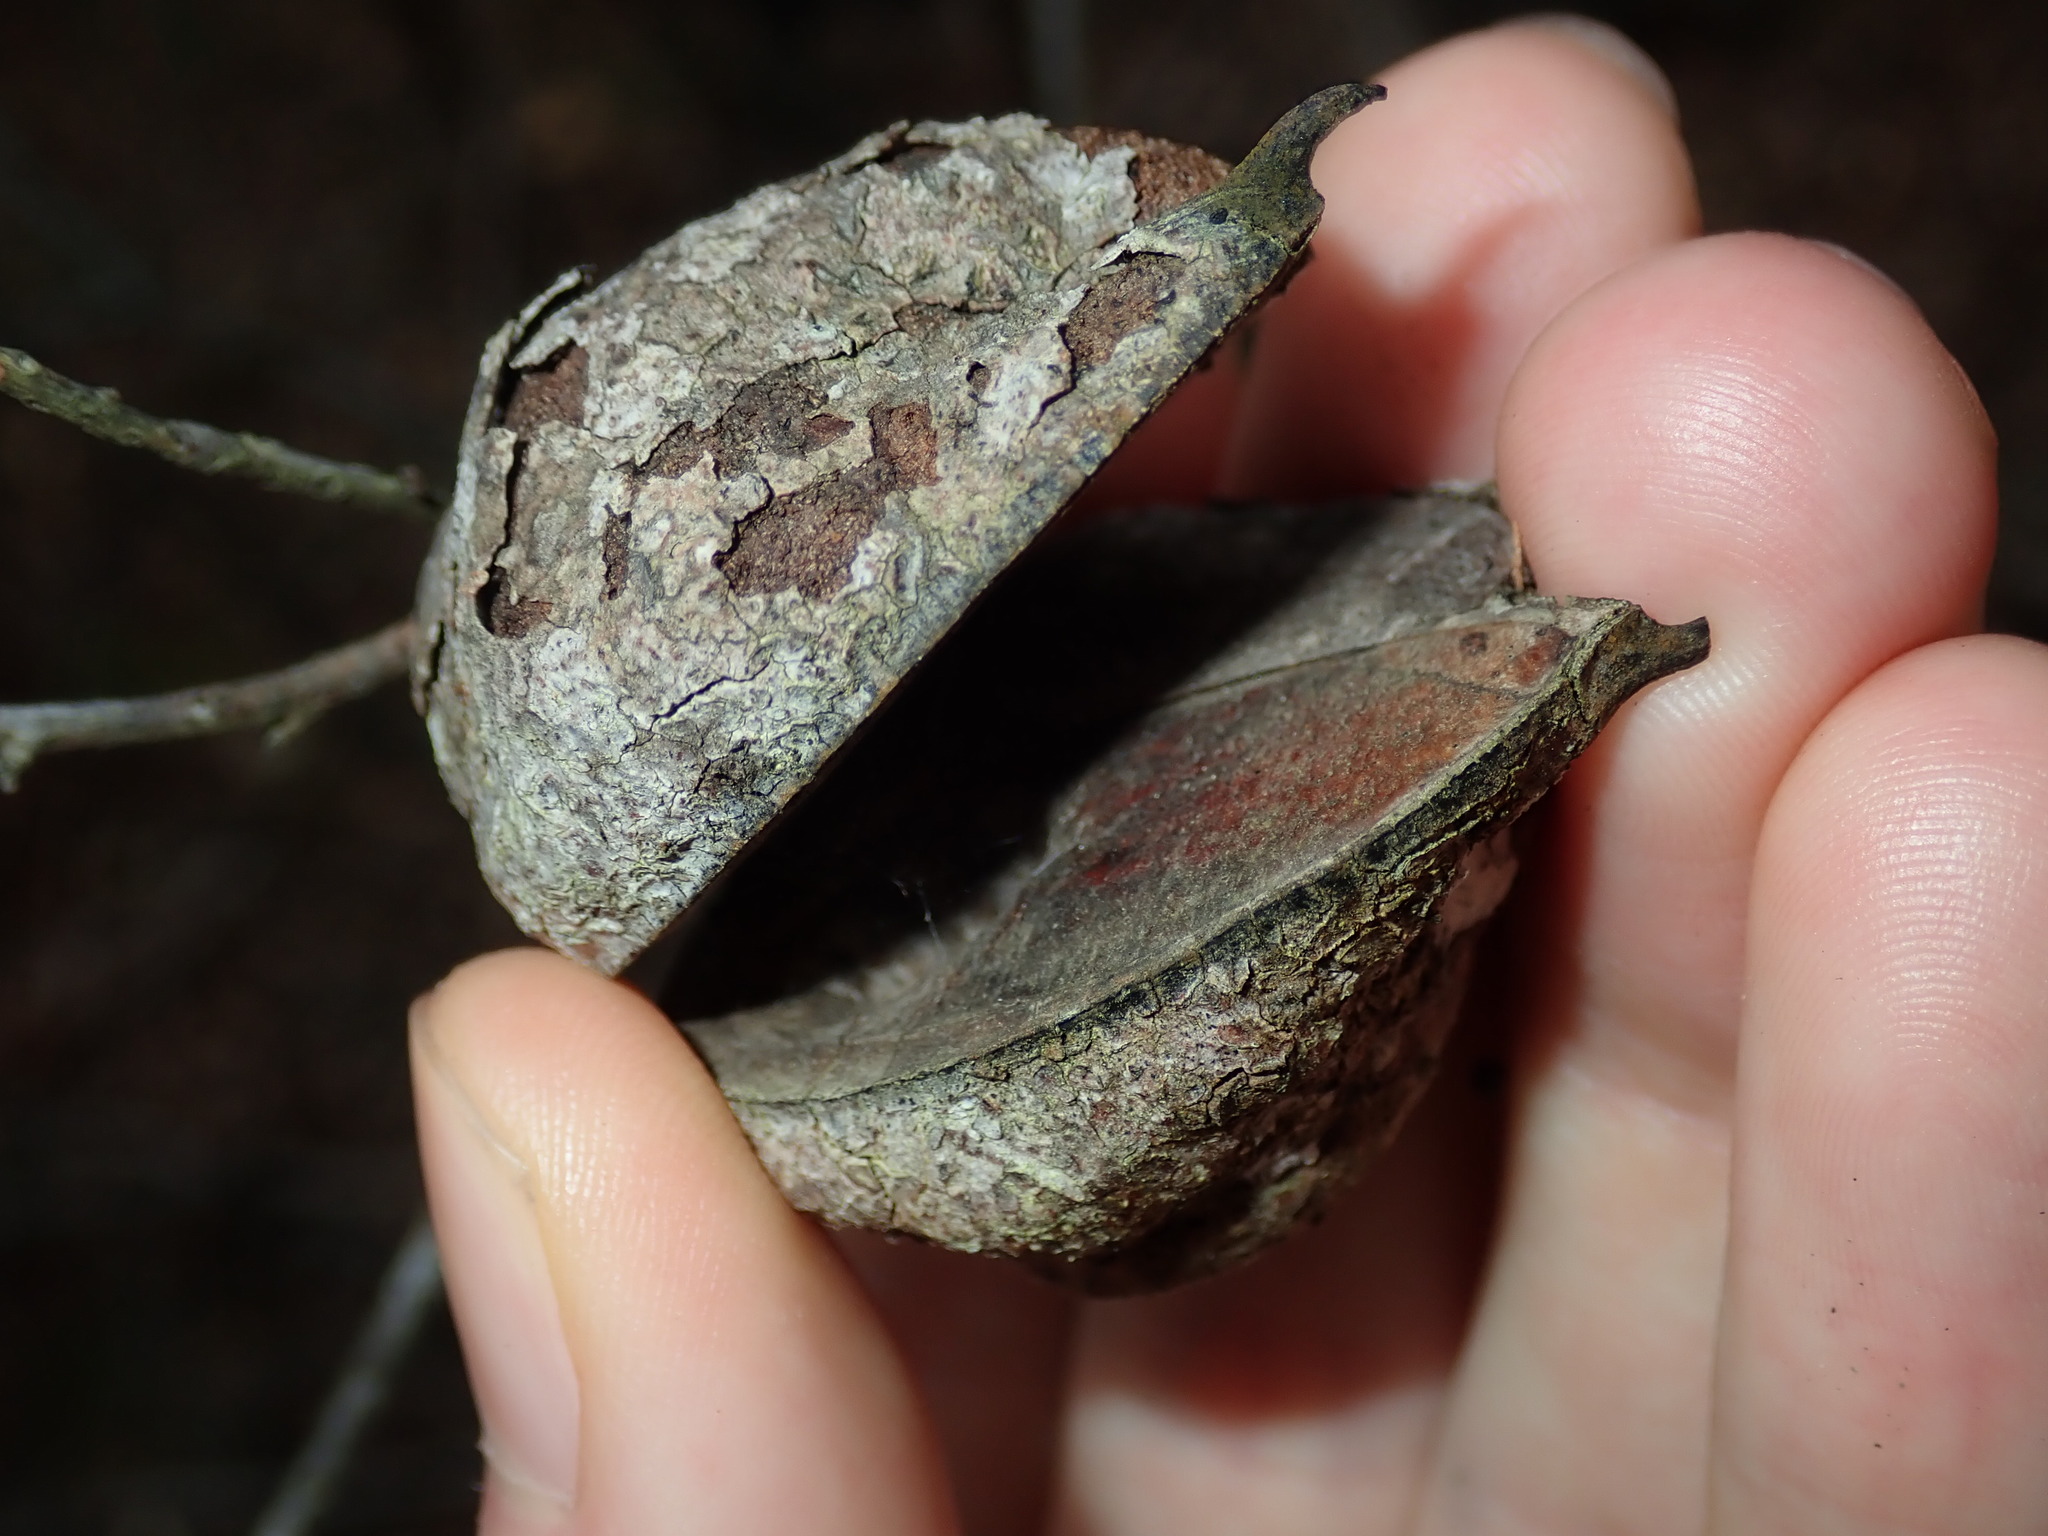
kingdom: Plantae
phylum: Tracheophyta
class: Magnoliopsida
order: Proteales
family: Proteaceae
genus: Hakea
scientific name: Hakea gibbosa
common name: Rock hakea
